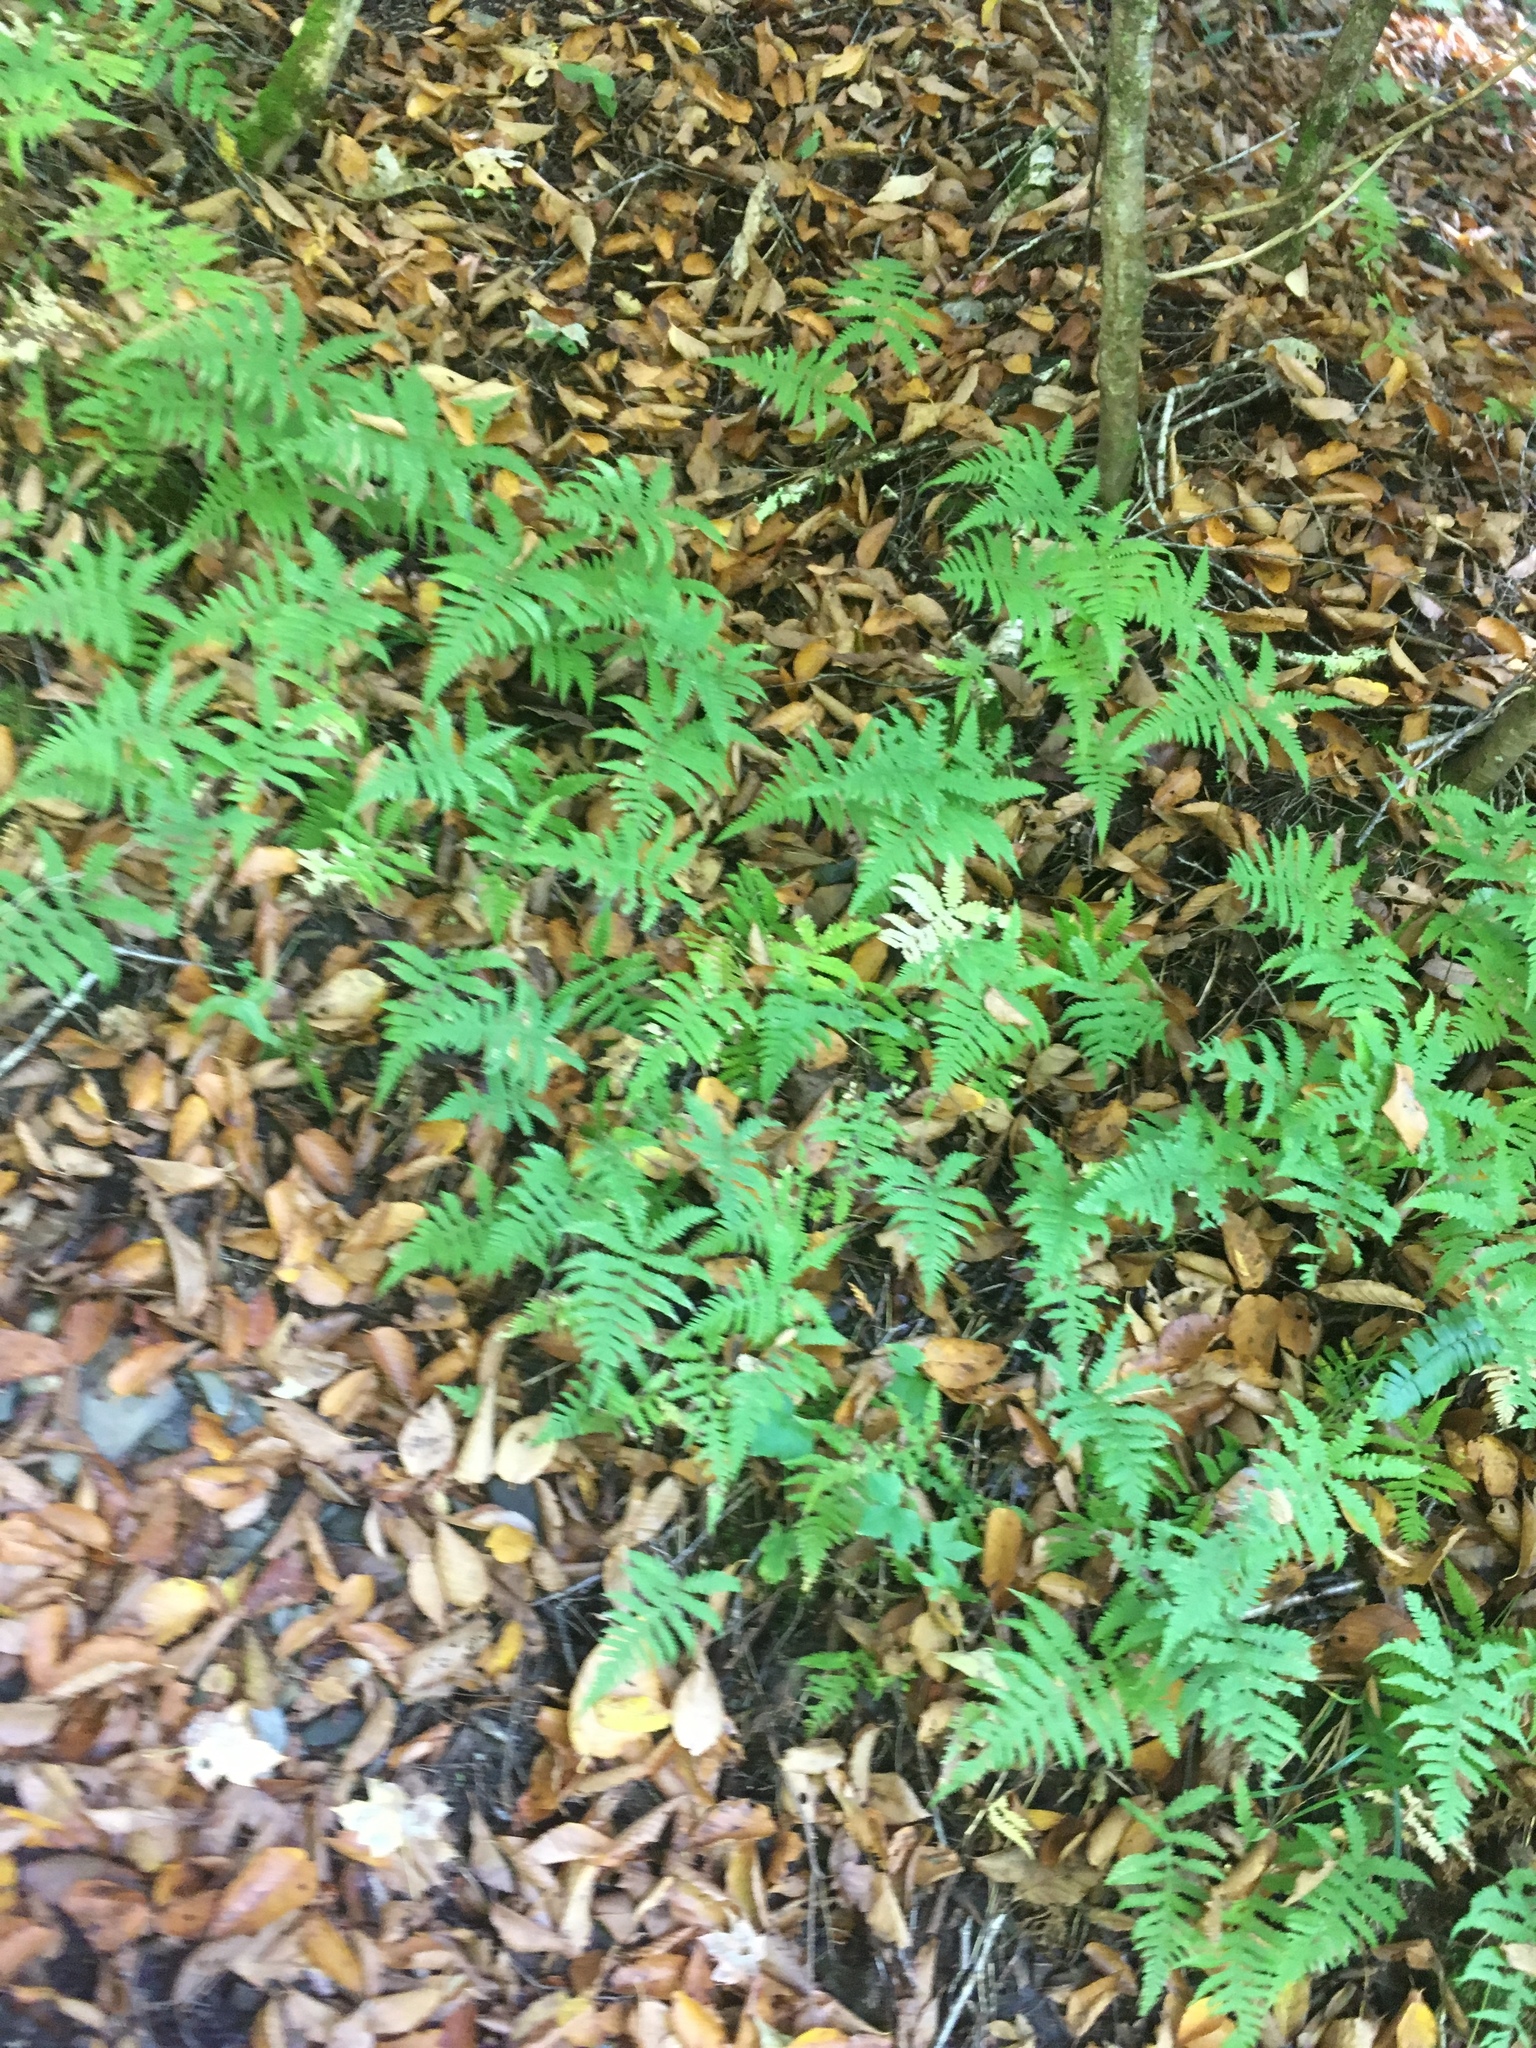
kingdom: Plantae
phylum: Tracheophyta
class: Polypodiopsida
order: Polypodiales
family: Thelypteridaceae
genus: Phegopteris
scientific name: Phegopteris connectilis
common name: Beech fern
